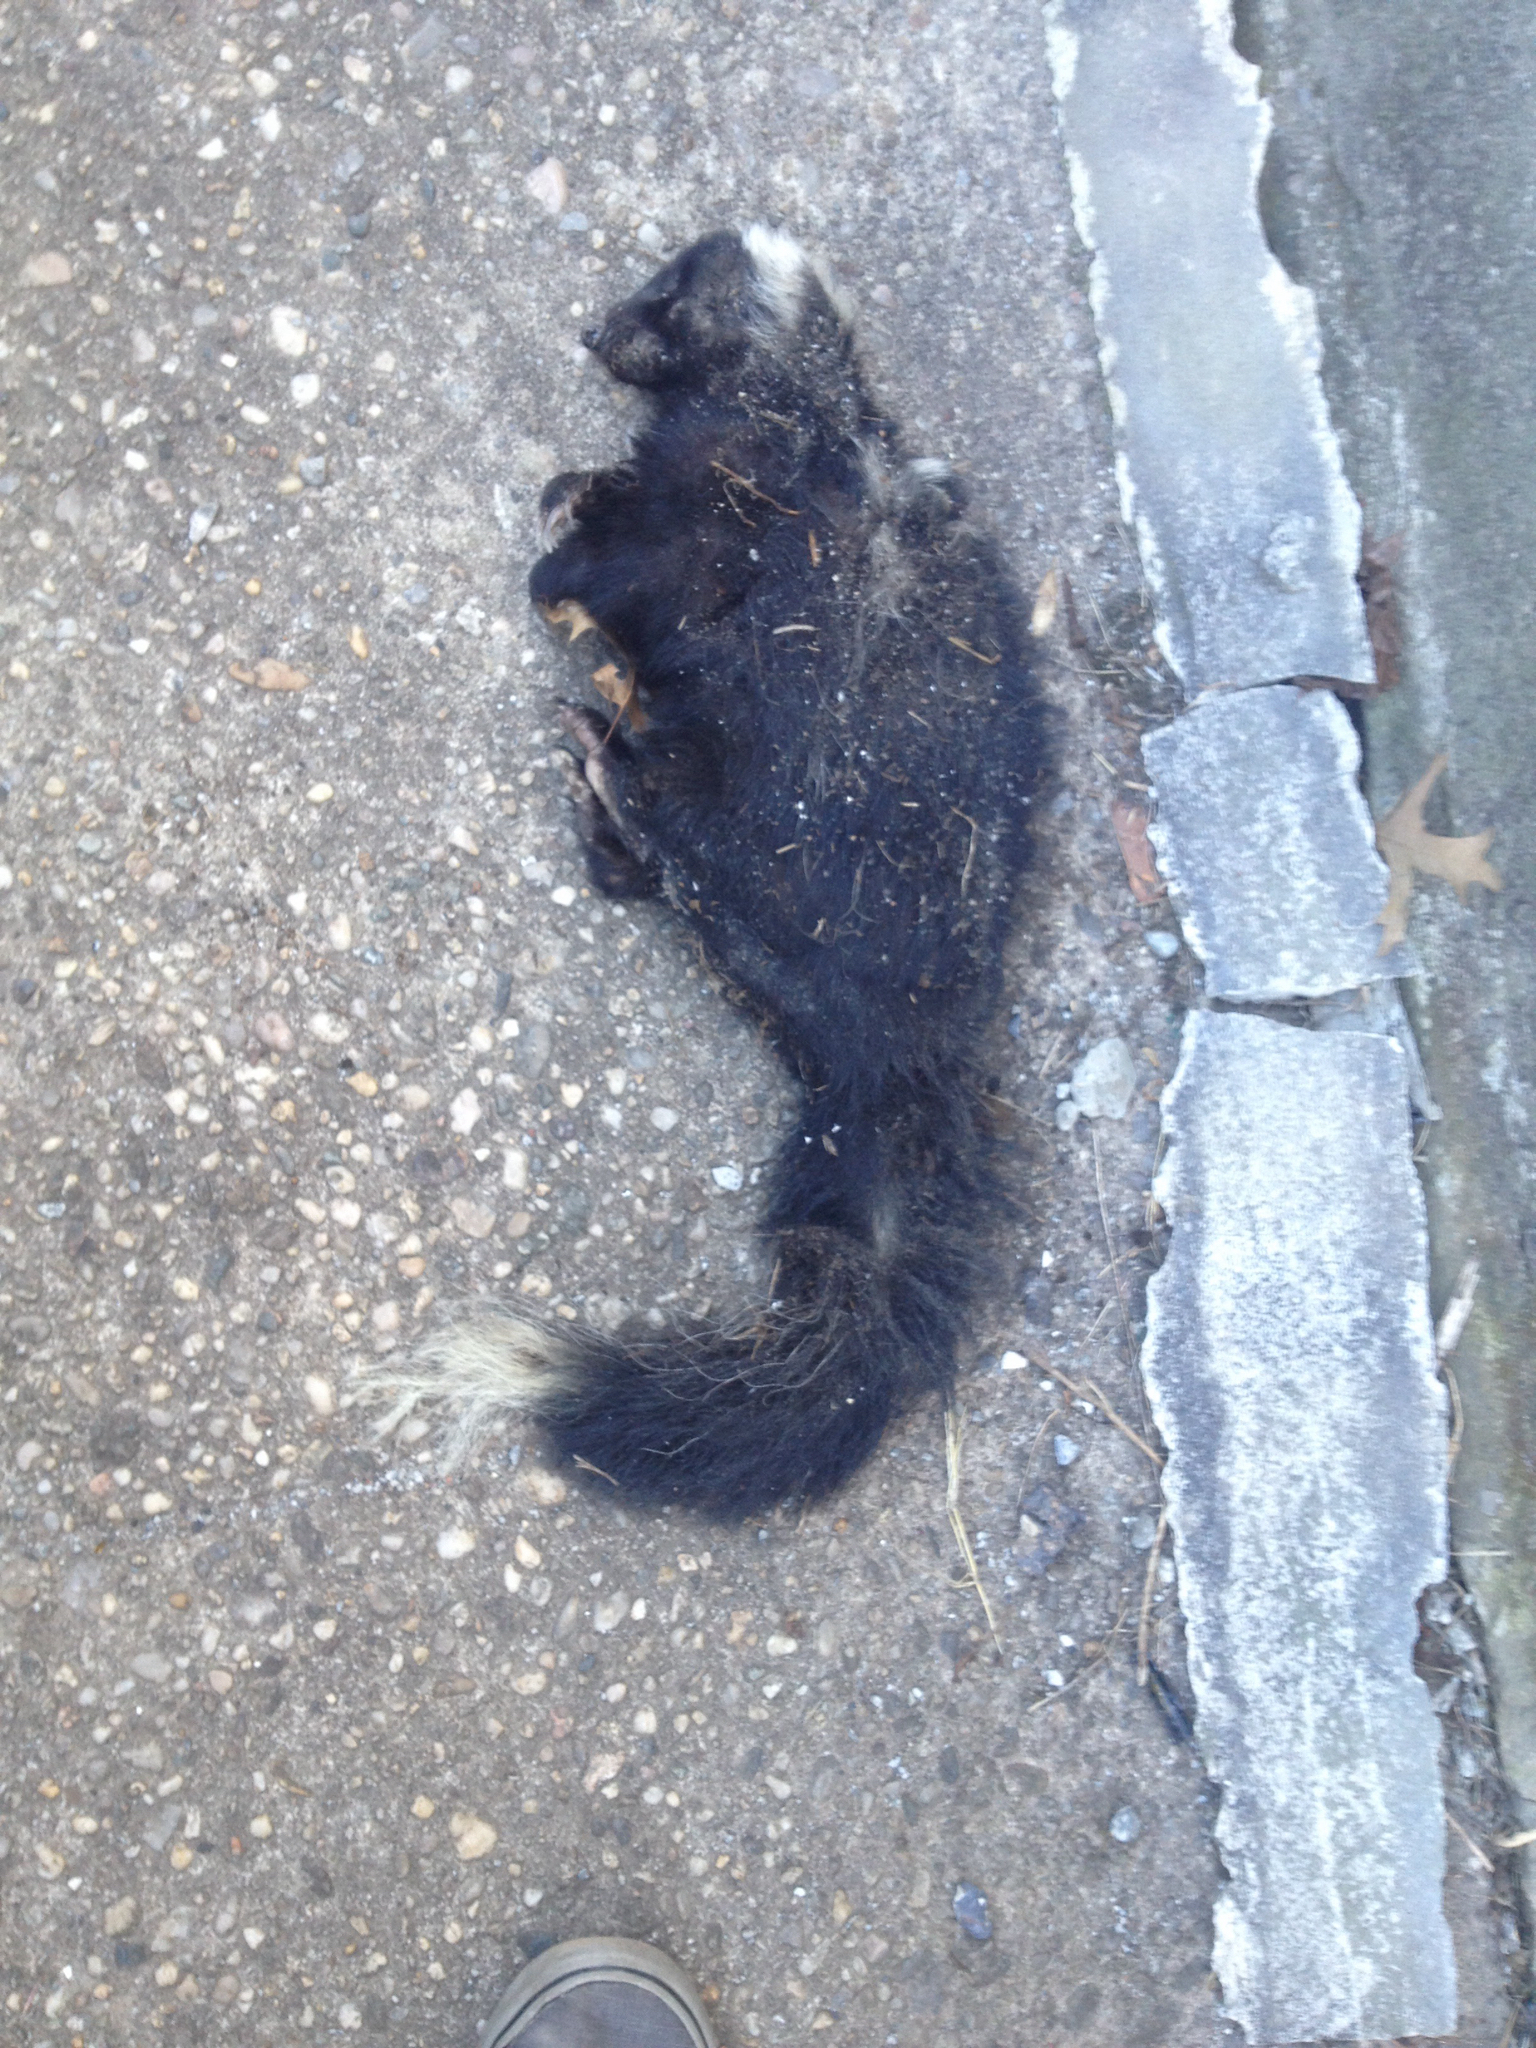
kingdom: Animalia
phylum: Chordata
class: Mammalia
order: Carnivora
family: Mephitidae
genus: Mephitis
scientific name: Mephitis mephitis
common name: Striped skunk
